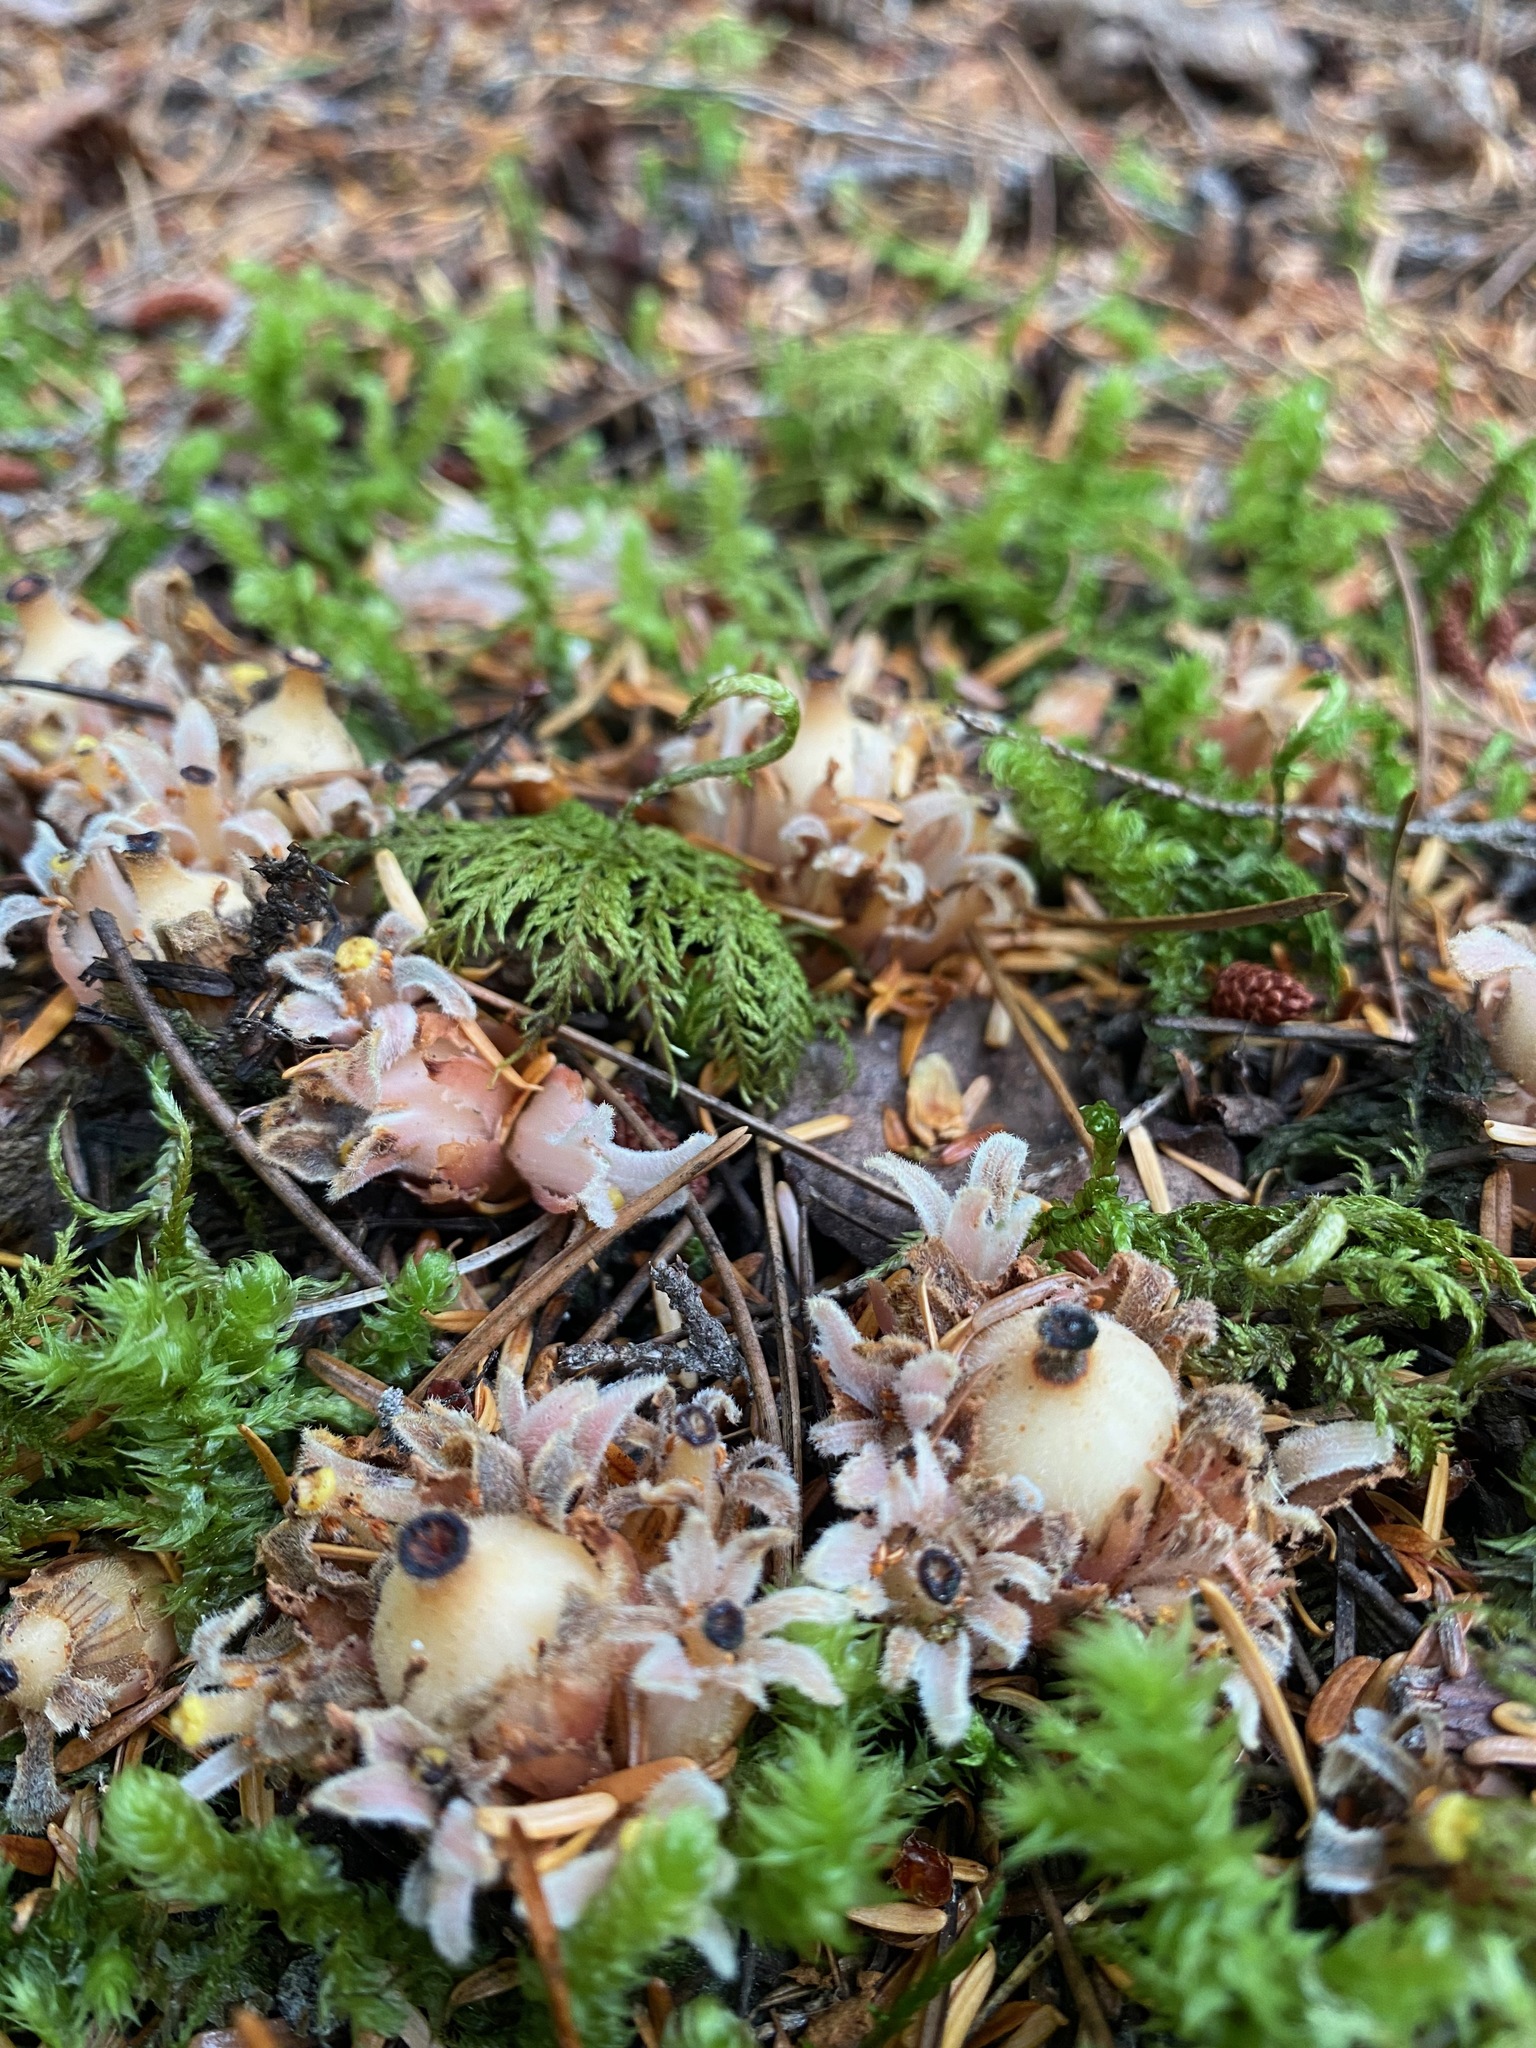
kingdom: Plantae
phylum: Tracheophyta
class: Magnoliopsida
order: Ericales
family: Ericaceae
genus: Hemitomes
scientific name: Hemitomes congestum
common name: Cone plant
